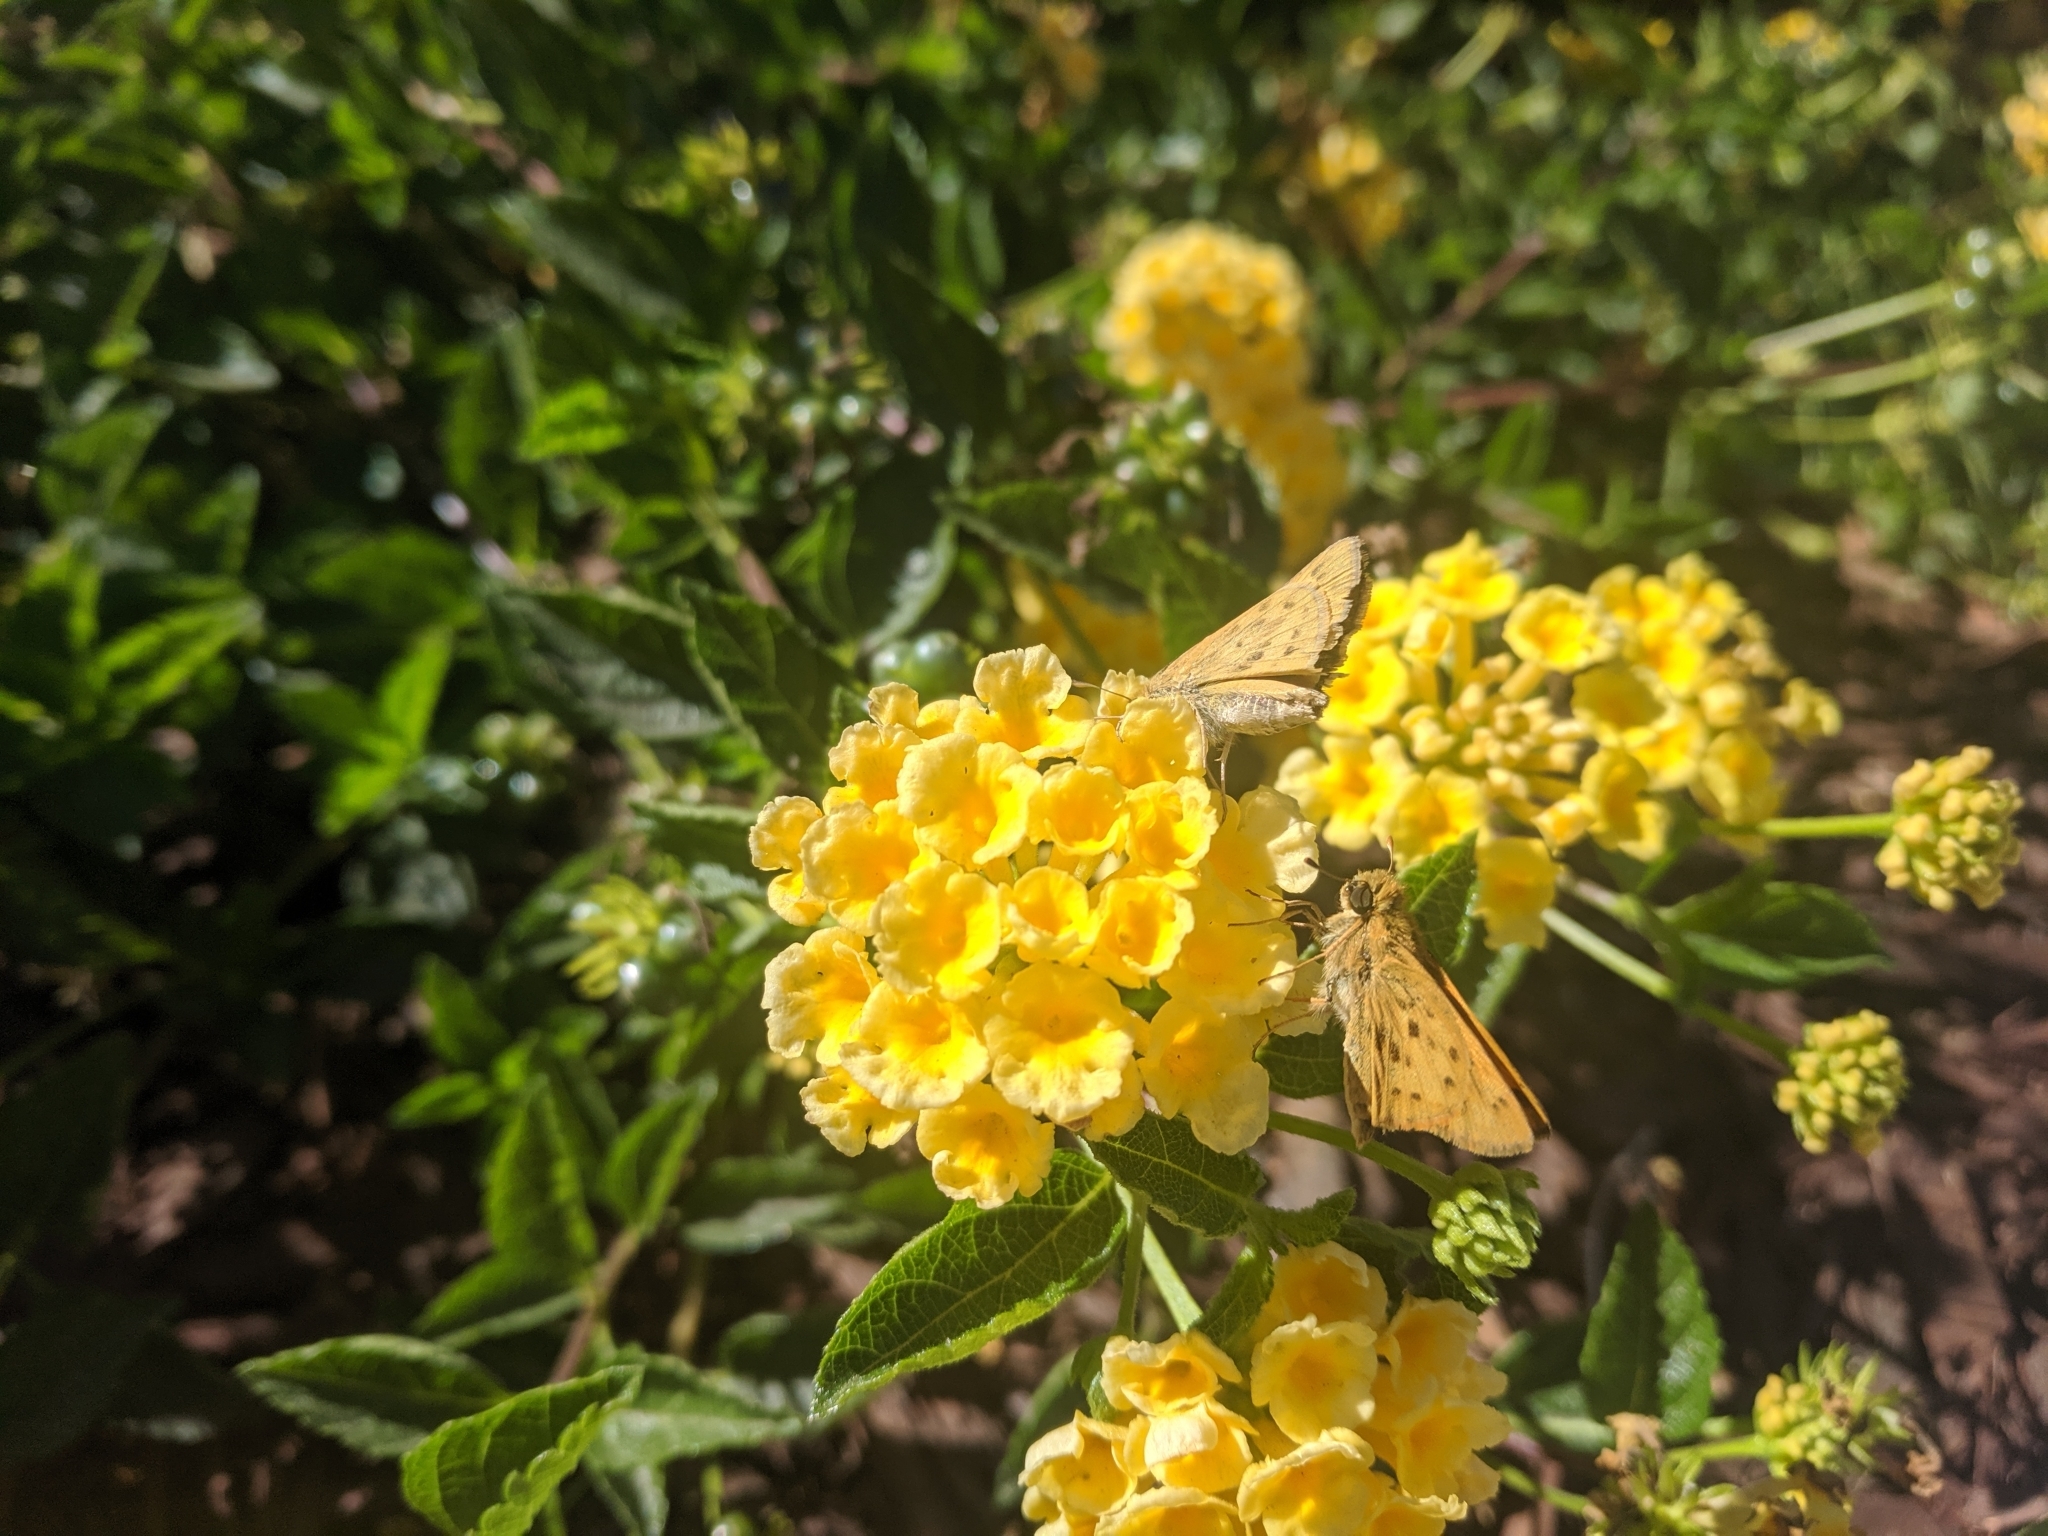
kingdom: Animalia
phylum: Arthropoda
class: Insecta
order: Lepidoptera
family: Hesperiidae
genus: Hylephila
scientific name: Hylephila phyleus
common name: Fiery skipper
